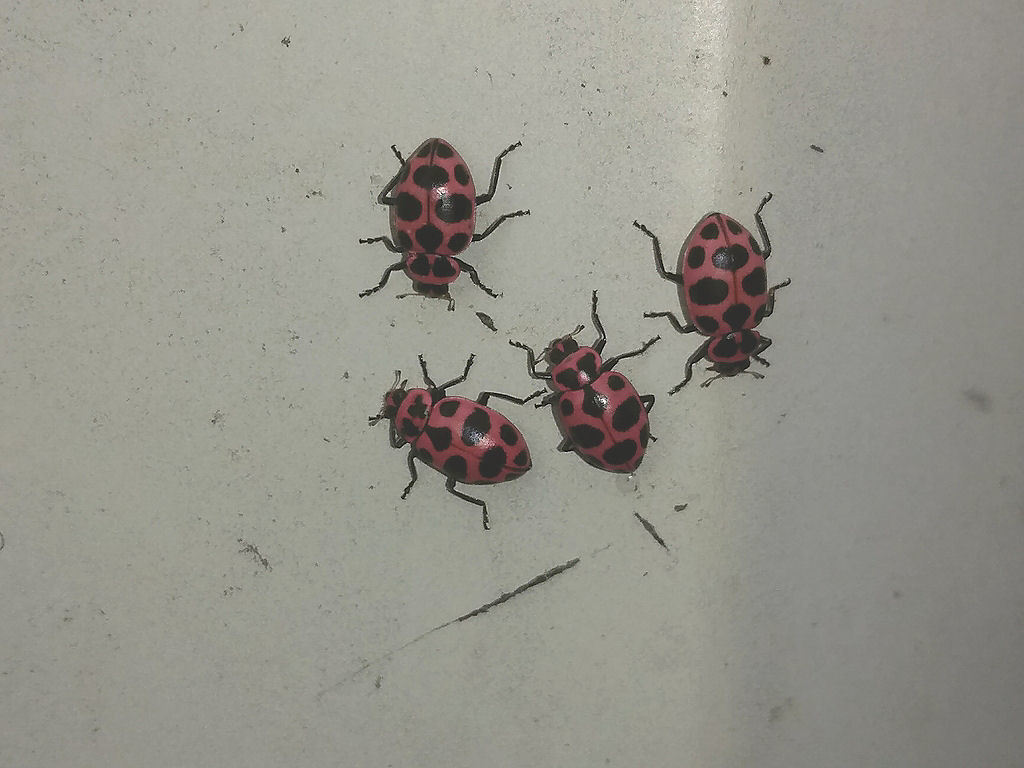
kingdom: Animalia
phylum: Arthropoda
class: Insecta
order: Coleoptera
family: Coccinellidae
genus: Coleomegilla
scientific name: Coleomegilla maculata
